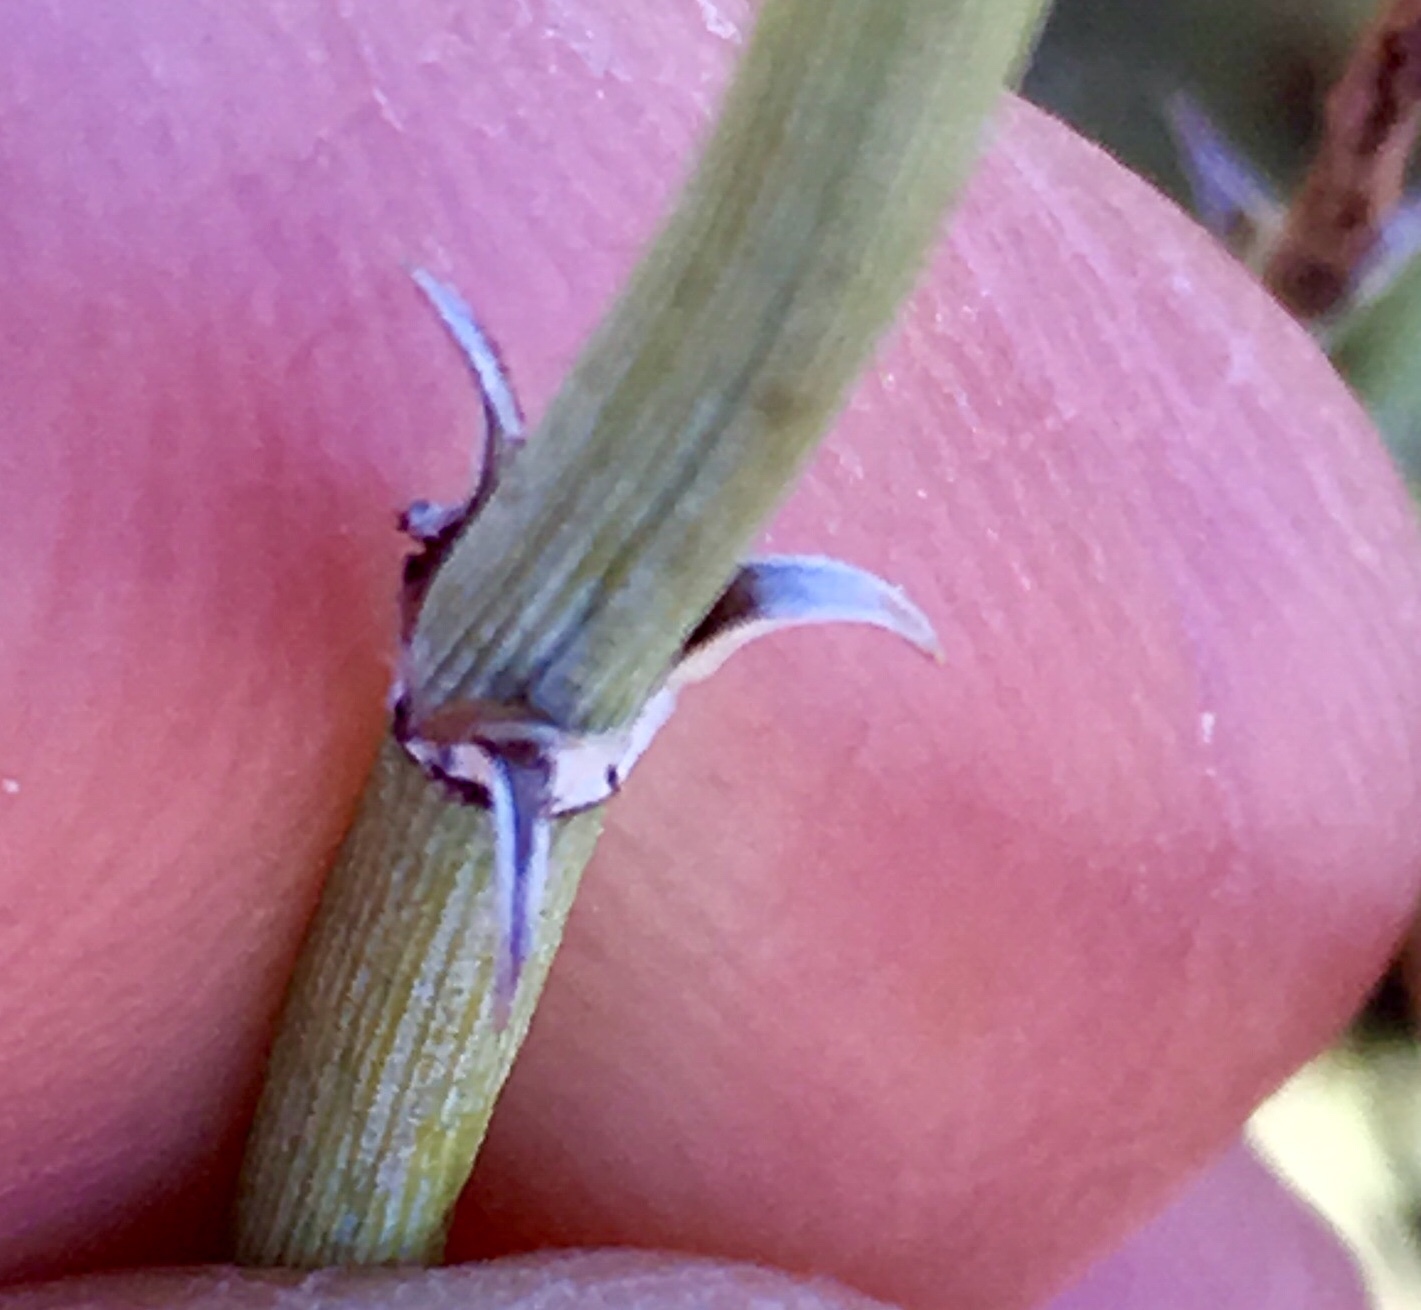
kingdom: Plantae
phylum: Tracheophyta
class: Gnetopsida
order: Ephedrales
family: Ephedraceae
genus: Ephedra
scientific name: Ephedra californica
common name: California ephedra
